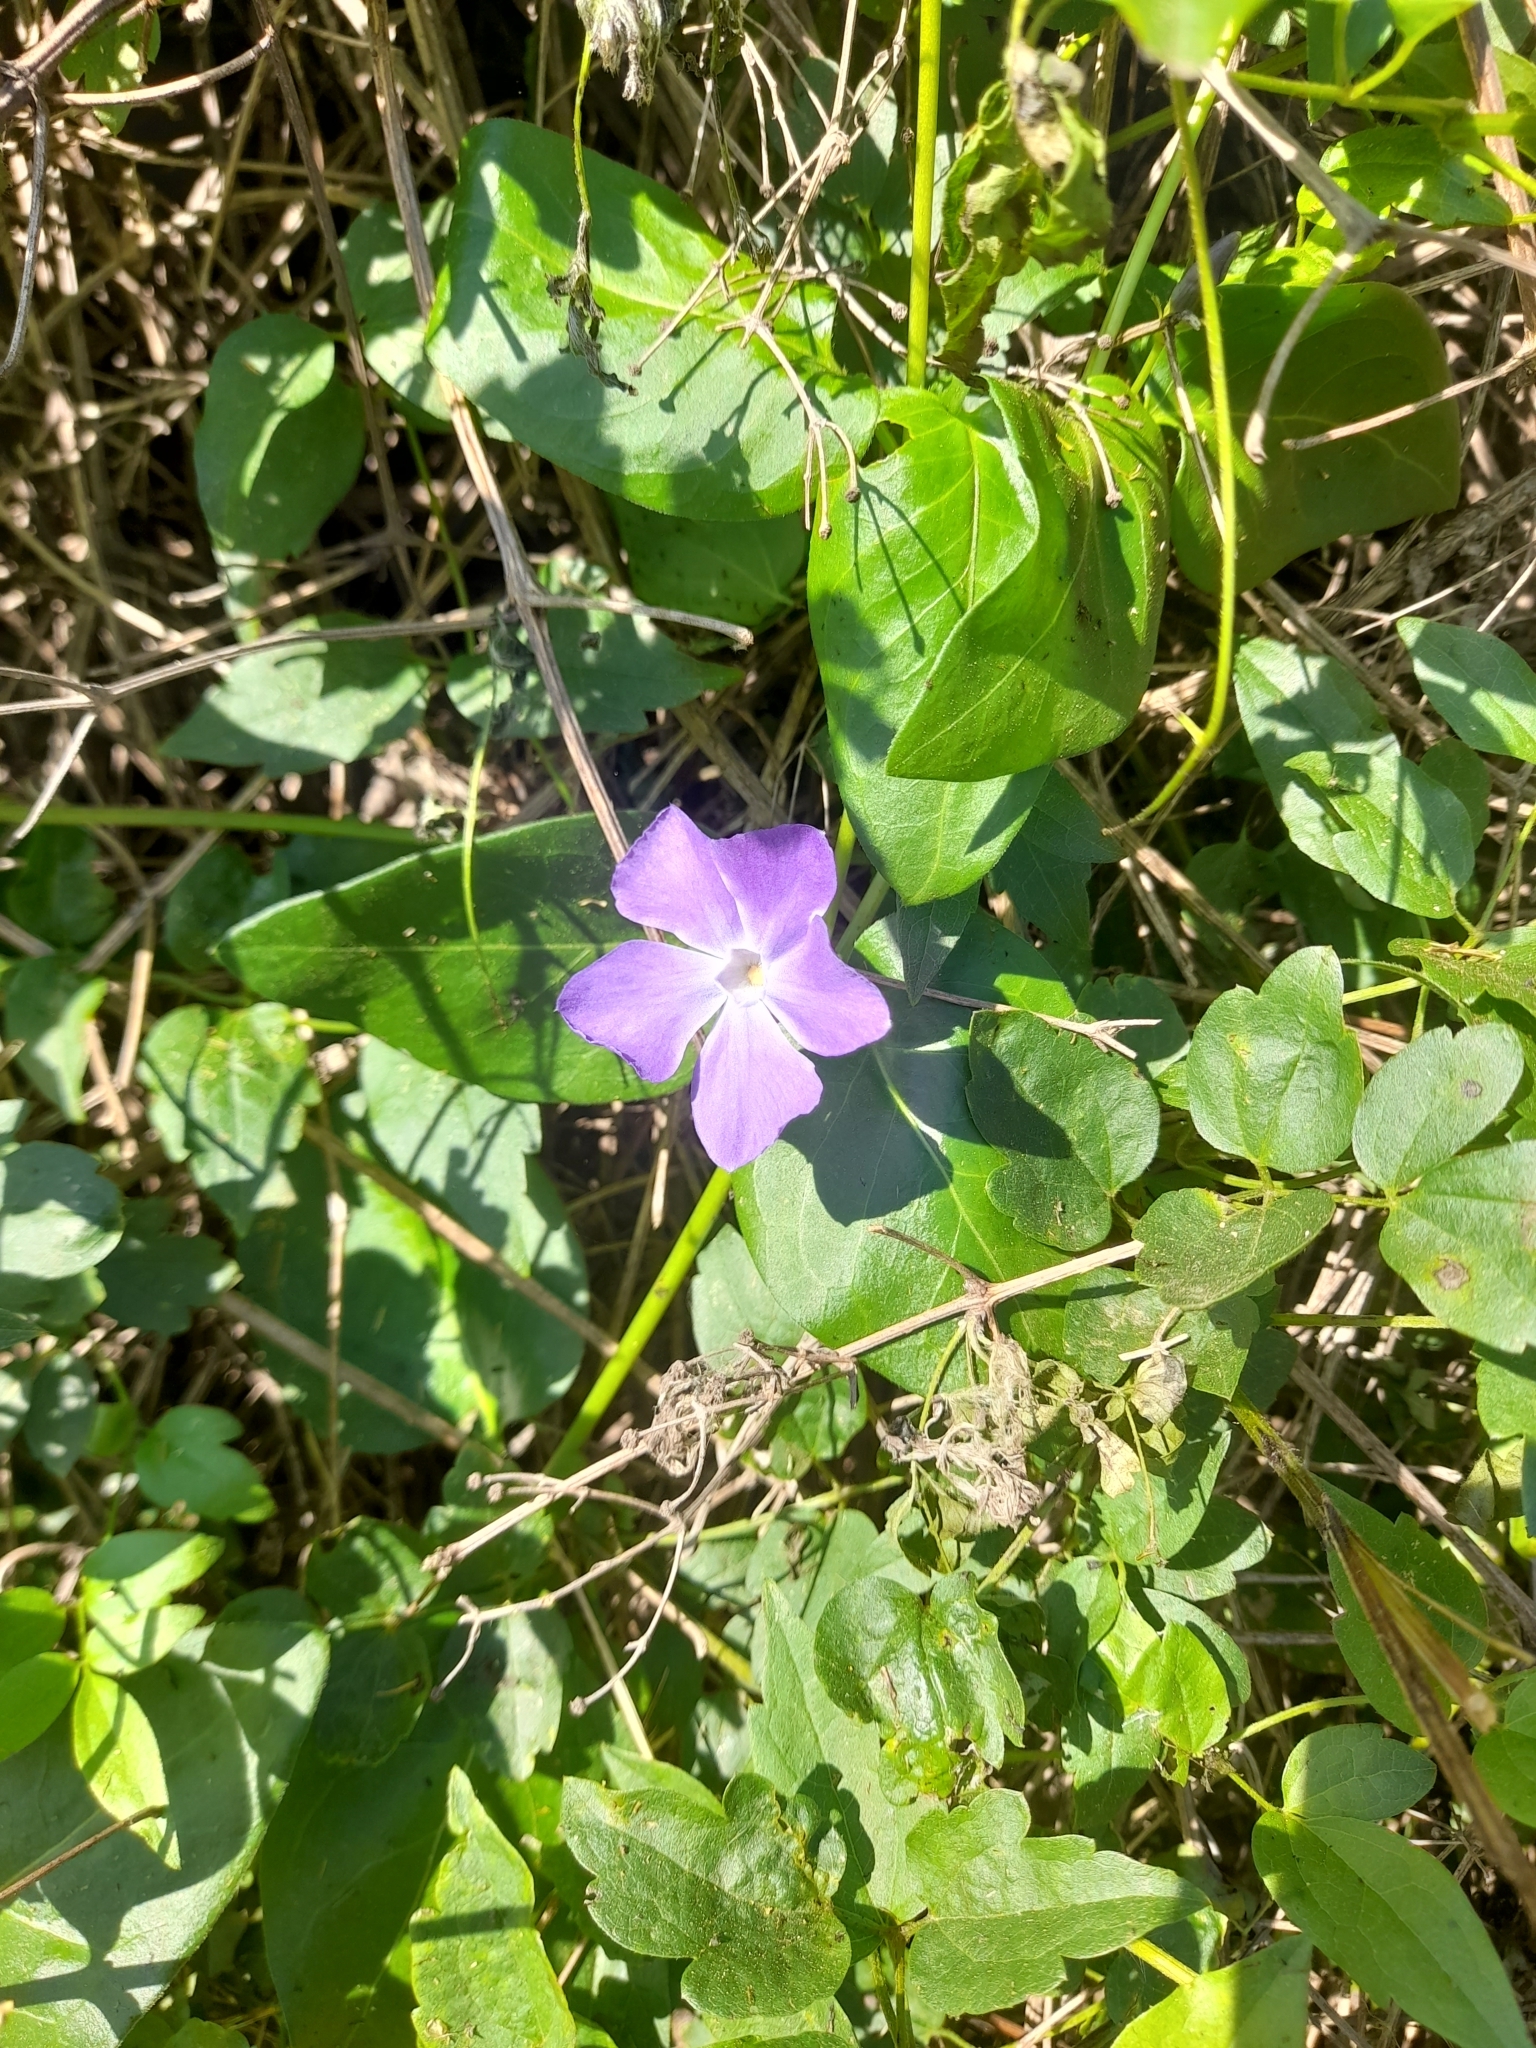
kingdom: Plantae
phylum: Tracheophyta
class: Magnoliopsida
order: Gentianales
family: Apocynaceae
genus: Vinca
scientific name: Vinca major
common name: Greater periwinkle
